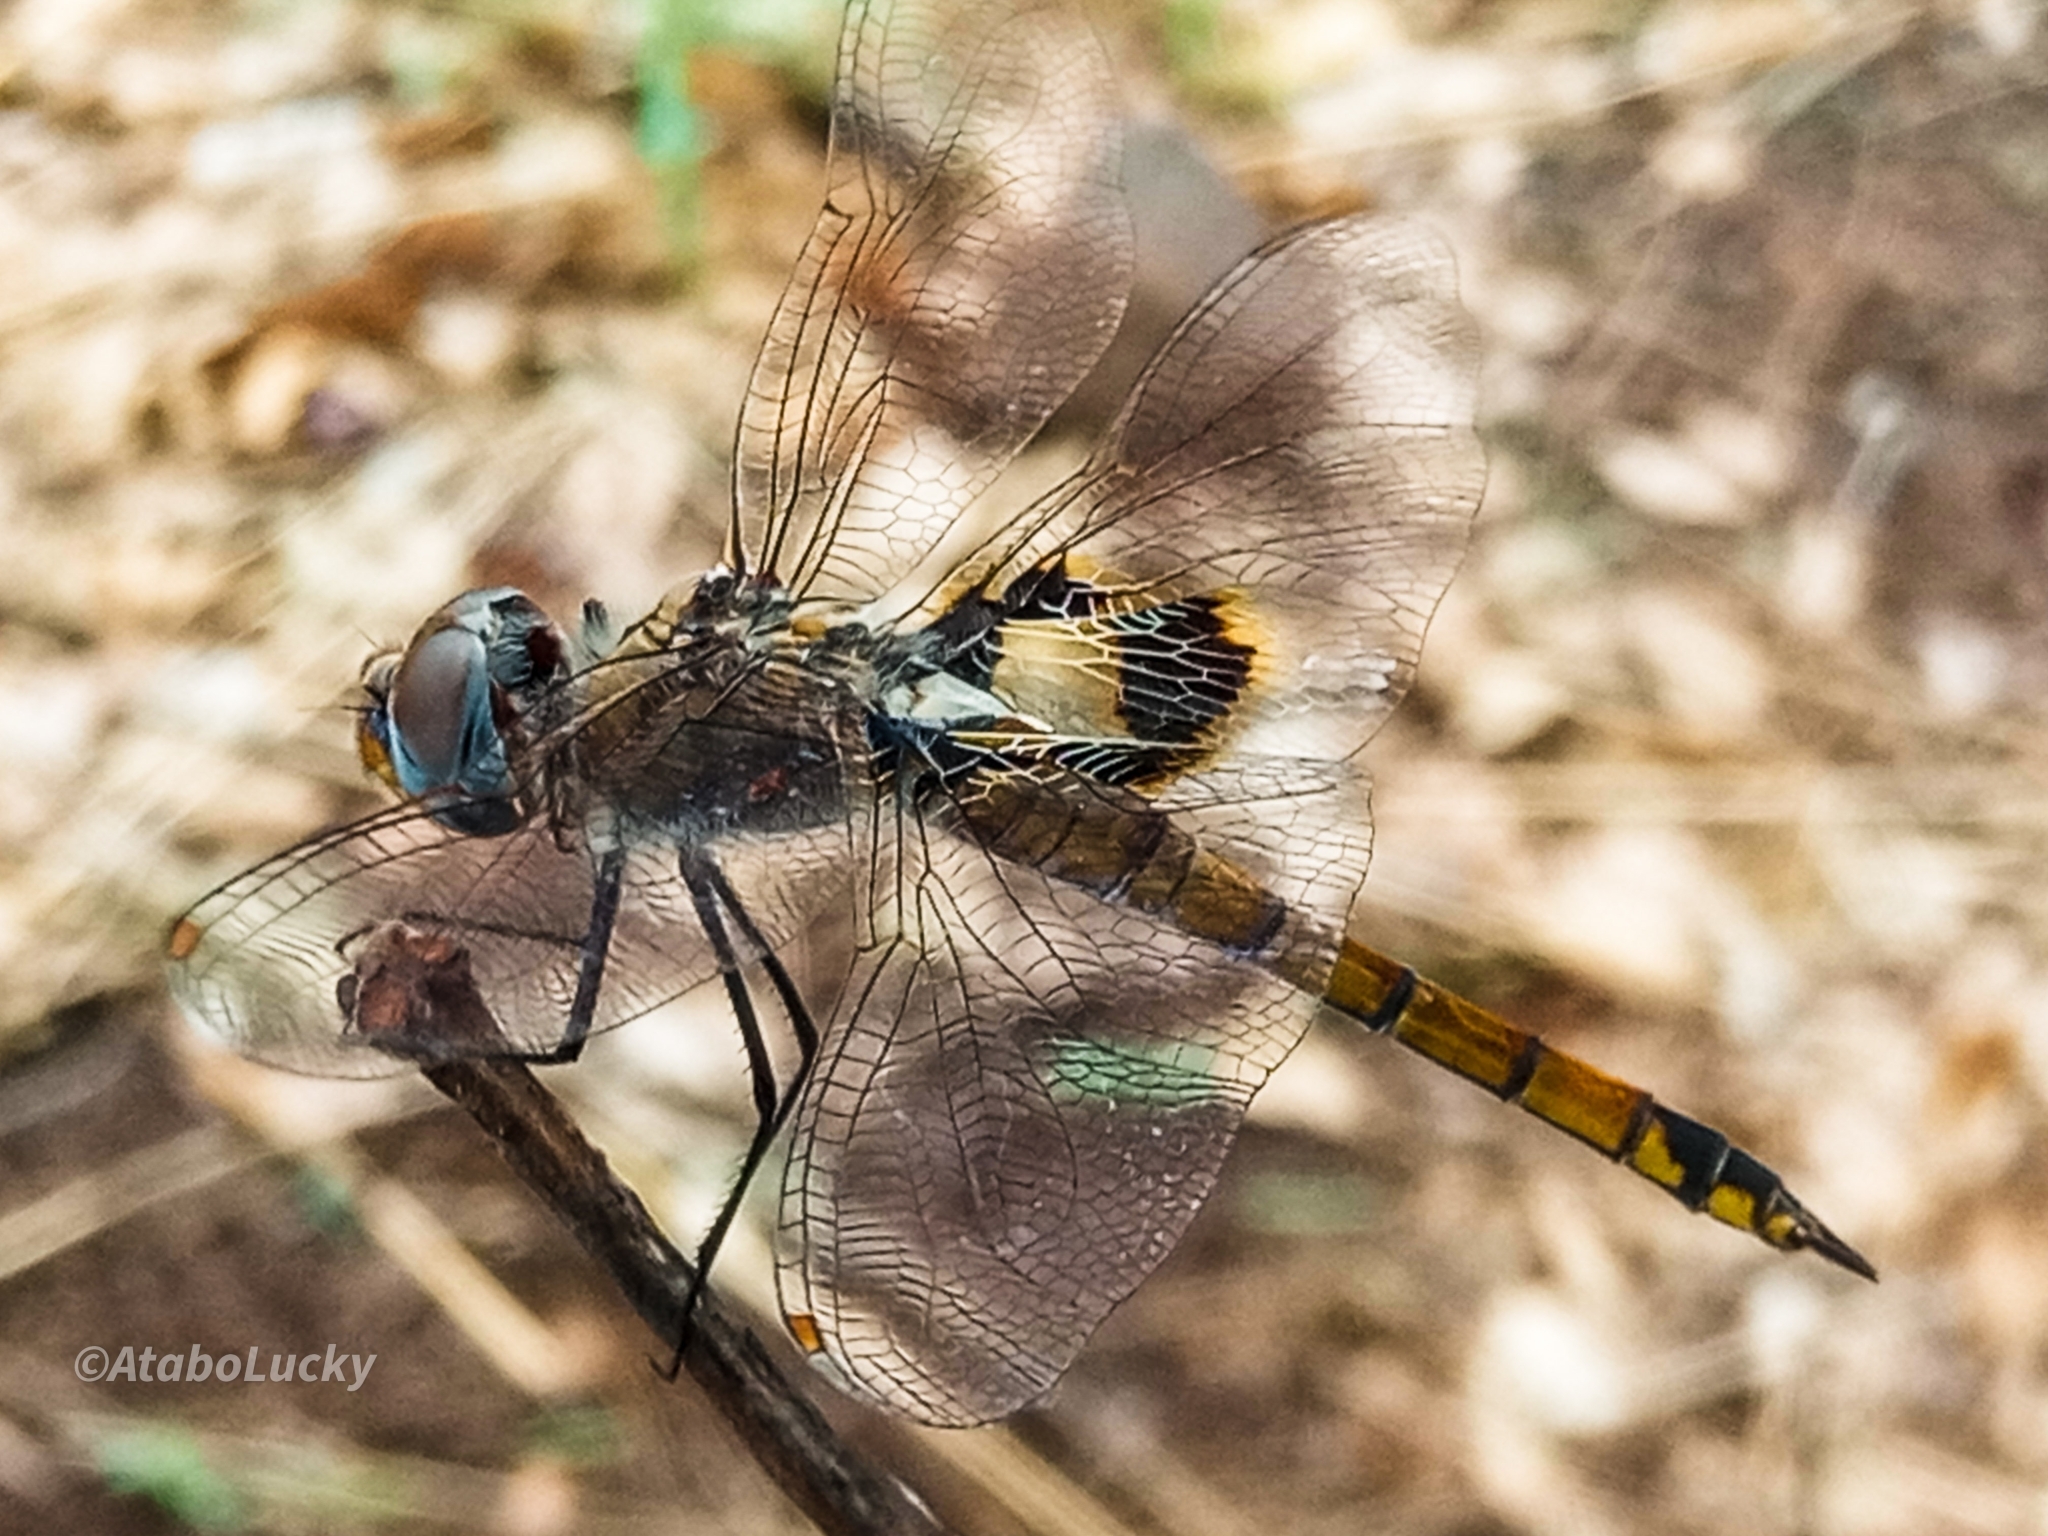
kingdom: Animalia
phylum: Arthropoda
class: Insecta
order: Odonata
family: Libellulidae
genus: Tramea
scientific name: Tramea basilaris
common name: Keyhole glider
